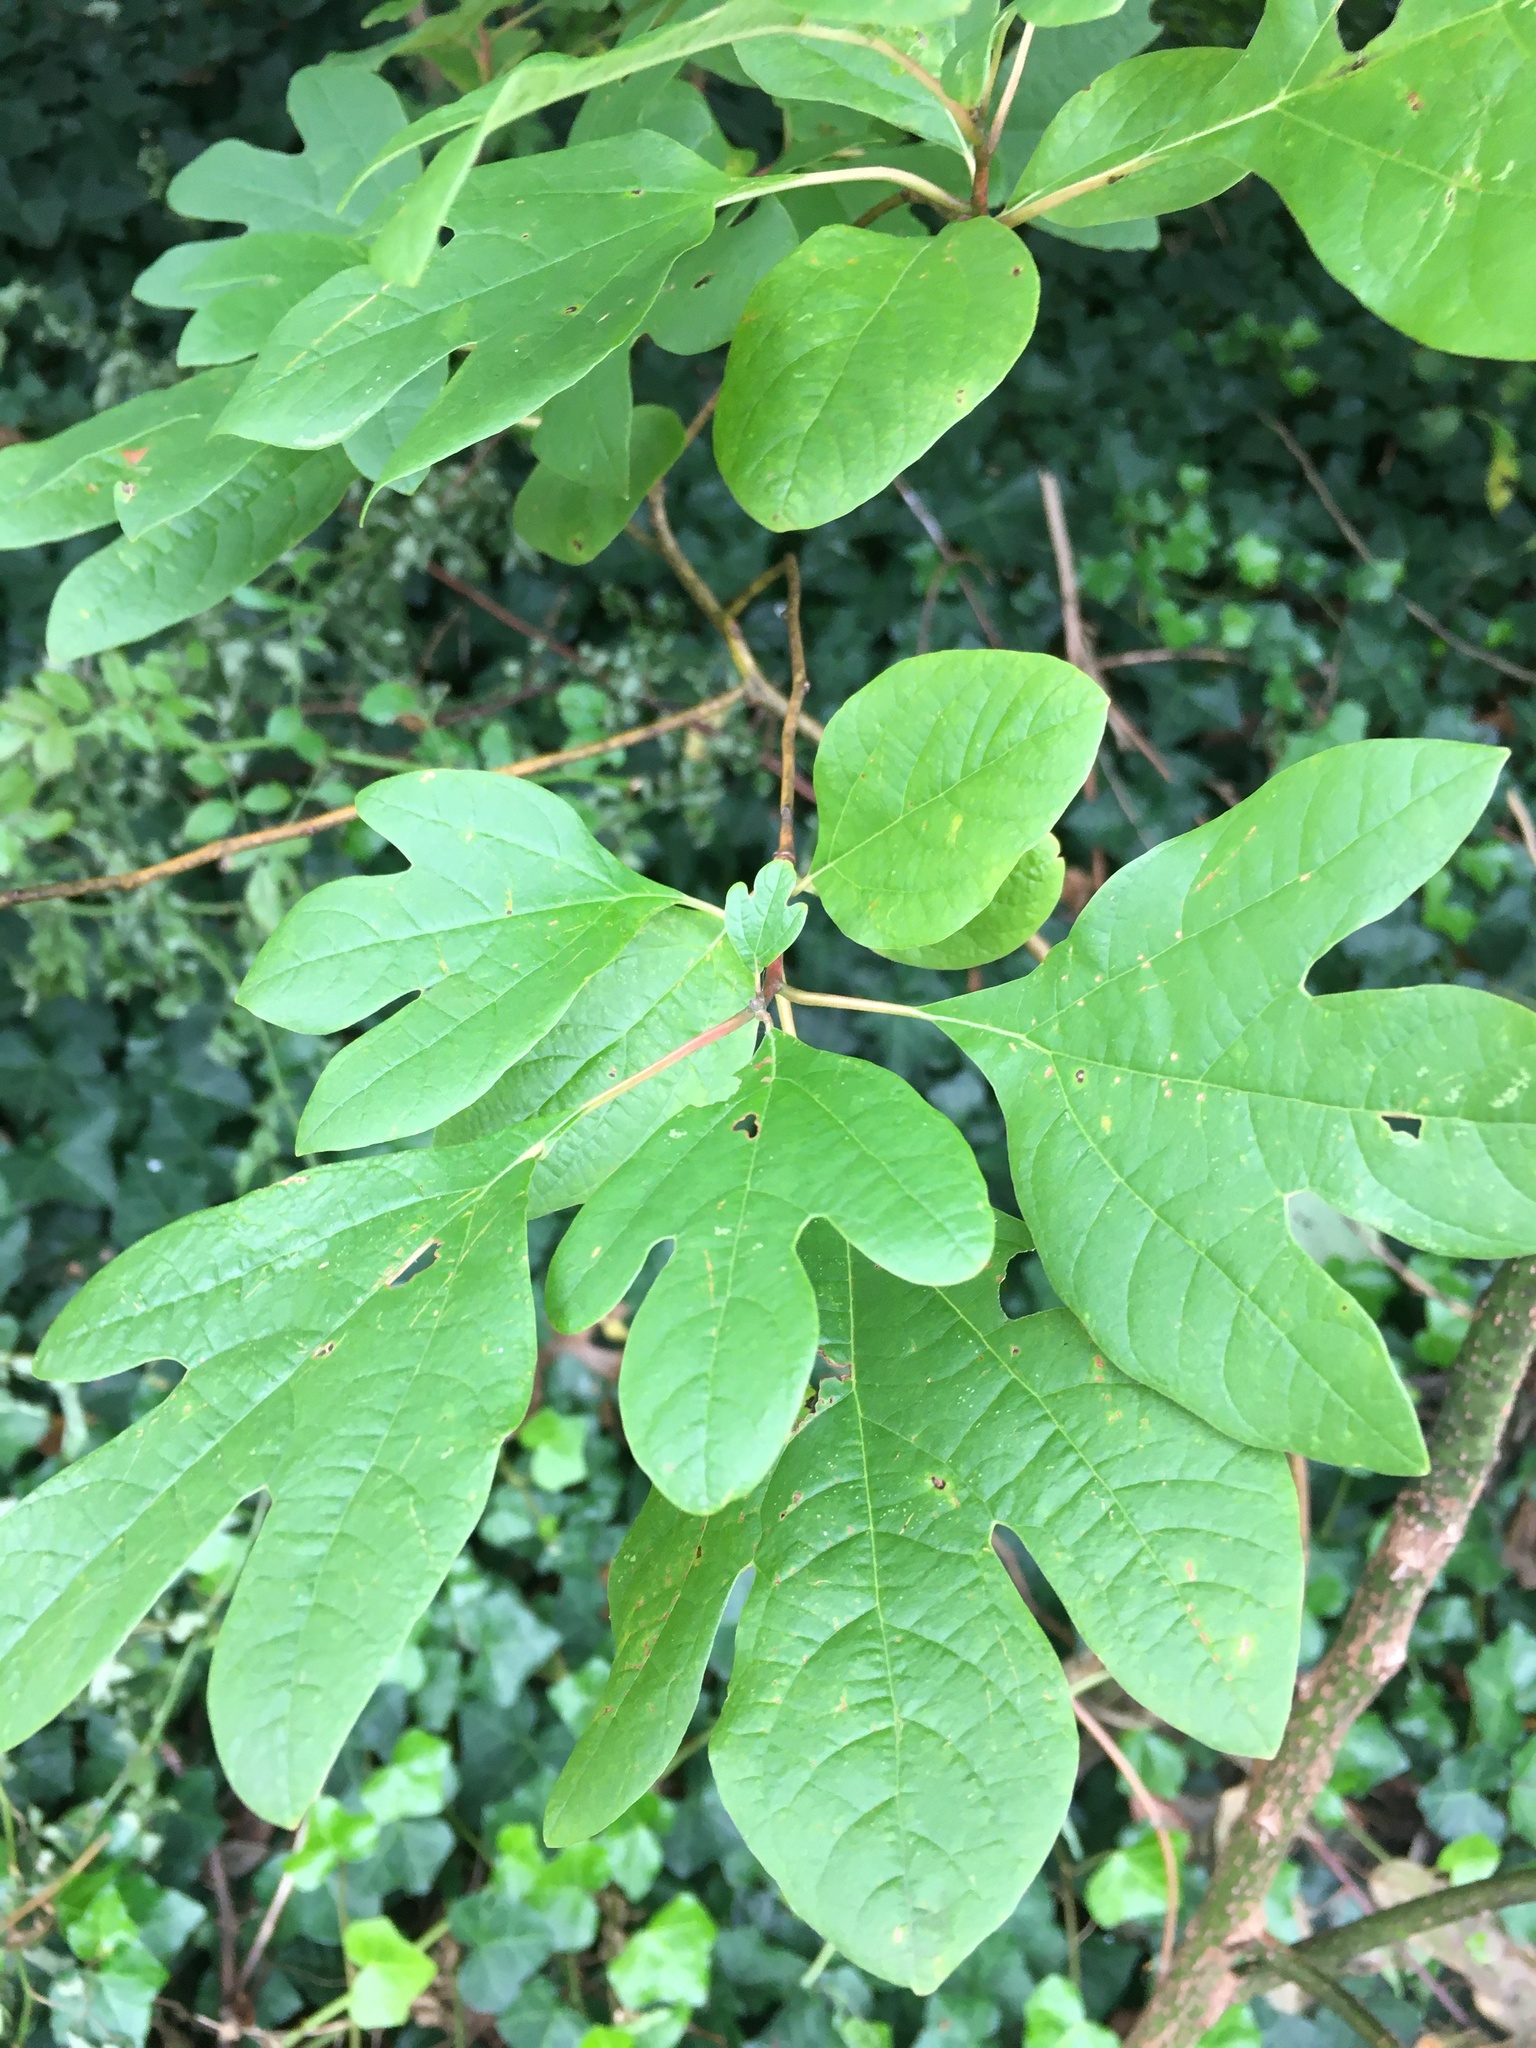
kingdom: Plantae
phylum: Tracheophyta
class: Magnoliopsida
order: Laurales
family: Lauraceae
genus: Sassafras
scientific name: Sassafras albidum
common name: Sassafras
